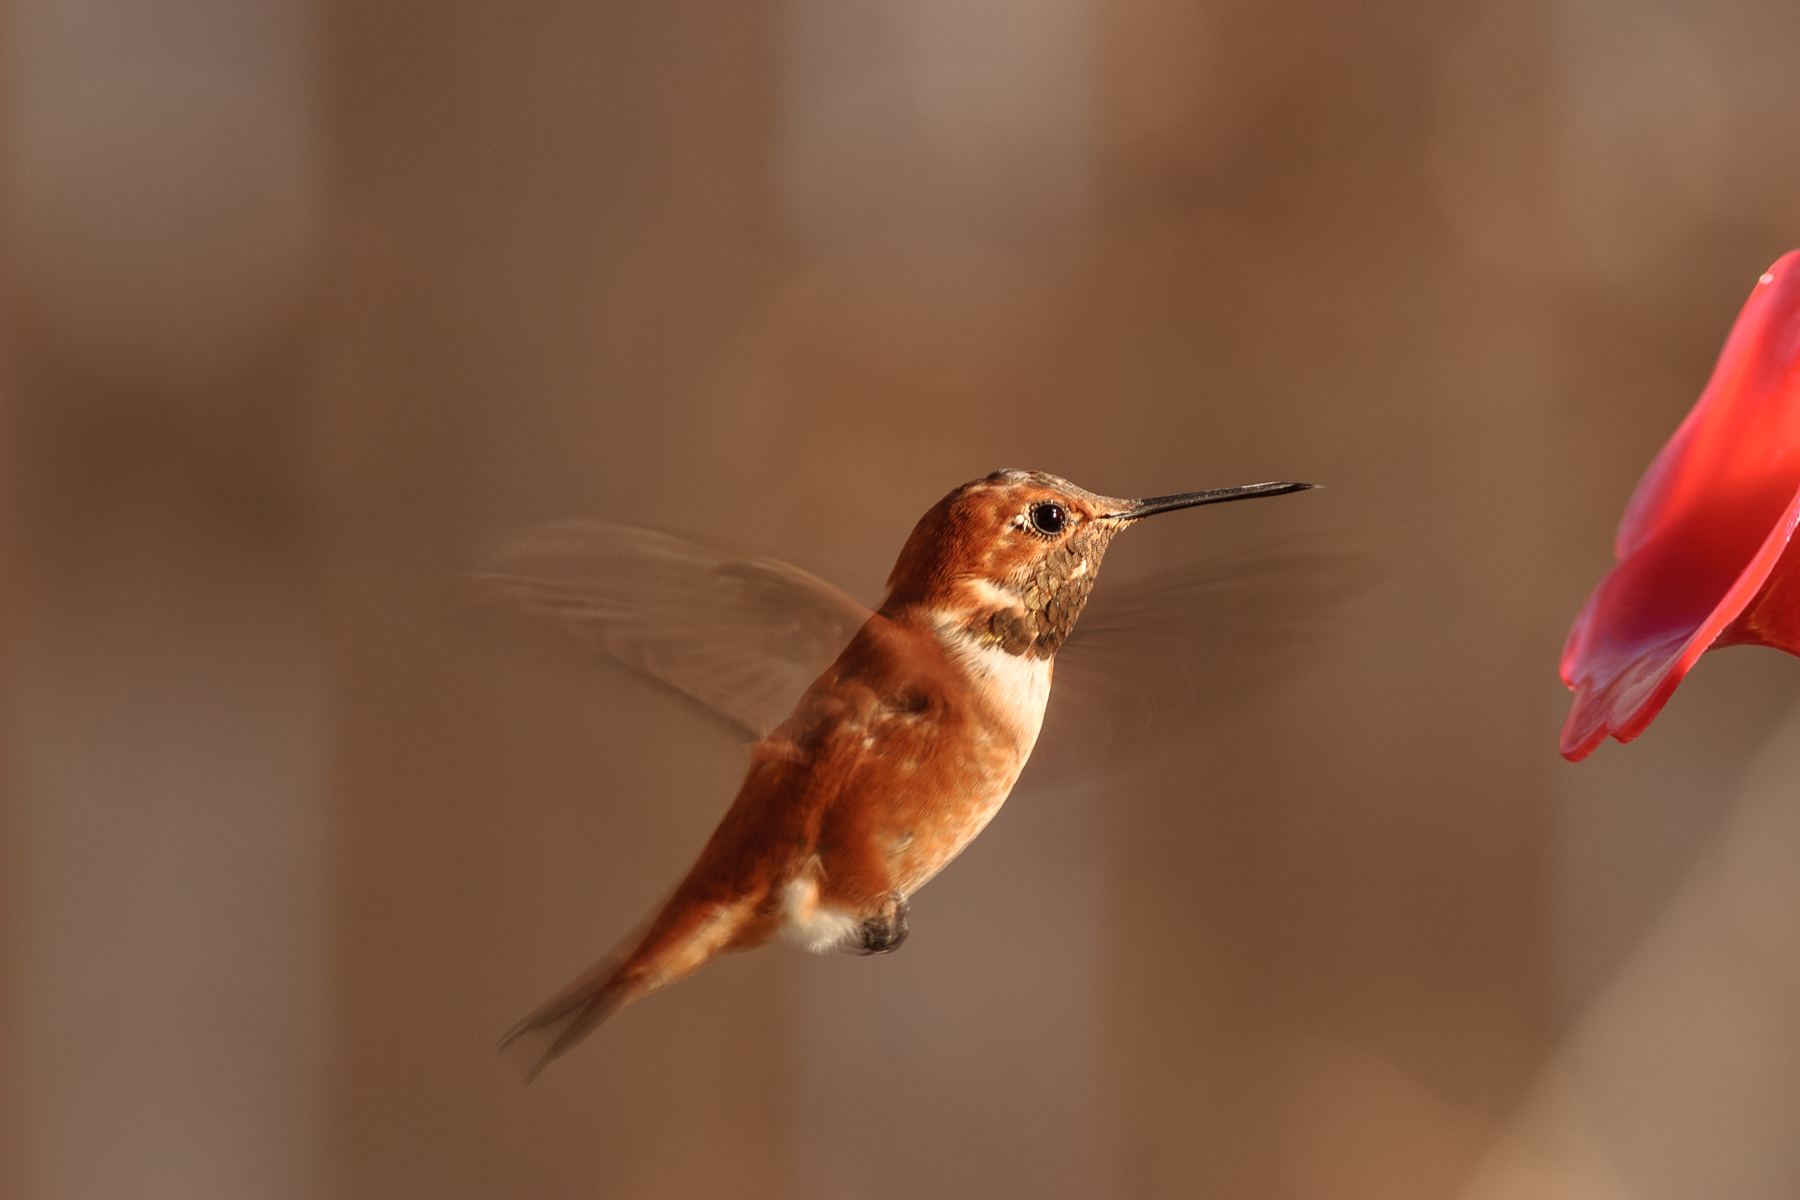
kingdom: Animalia
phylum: Chordata
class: Aves
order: Apodiformes
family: Trochilidae
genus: Selasphorus
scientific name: Selasphorus rufus
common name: Rufous hummingbird
